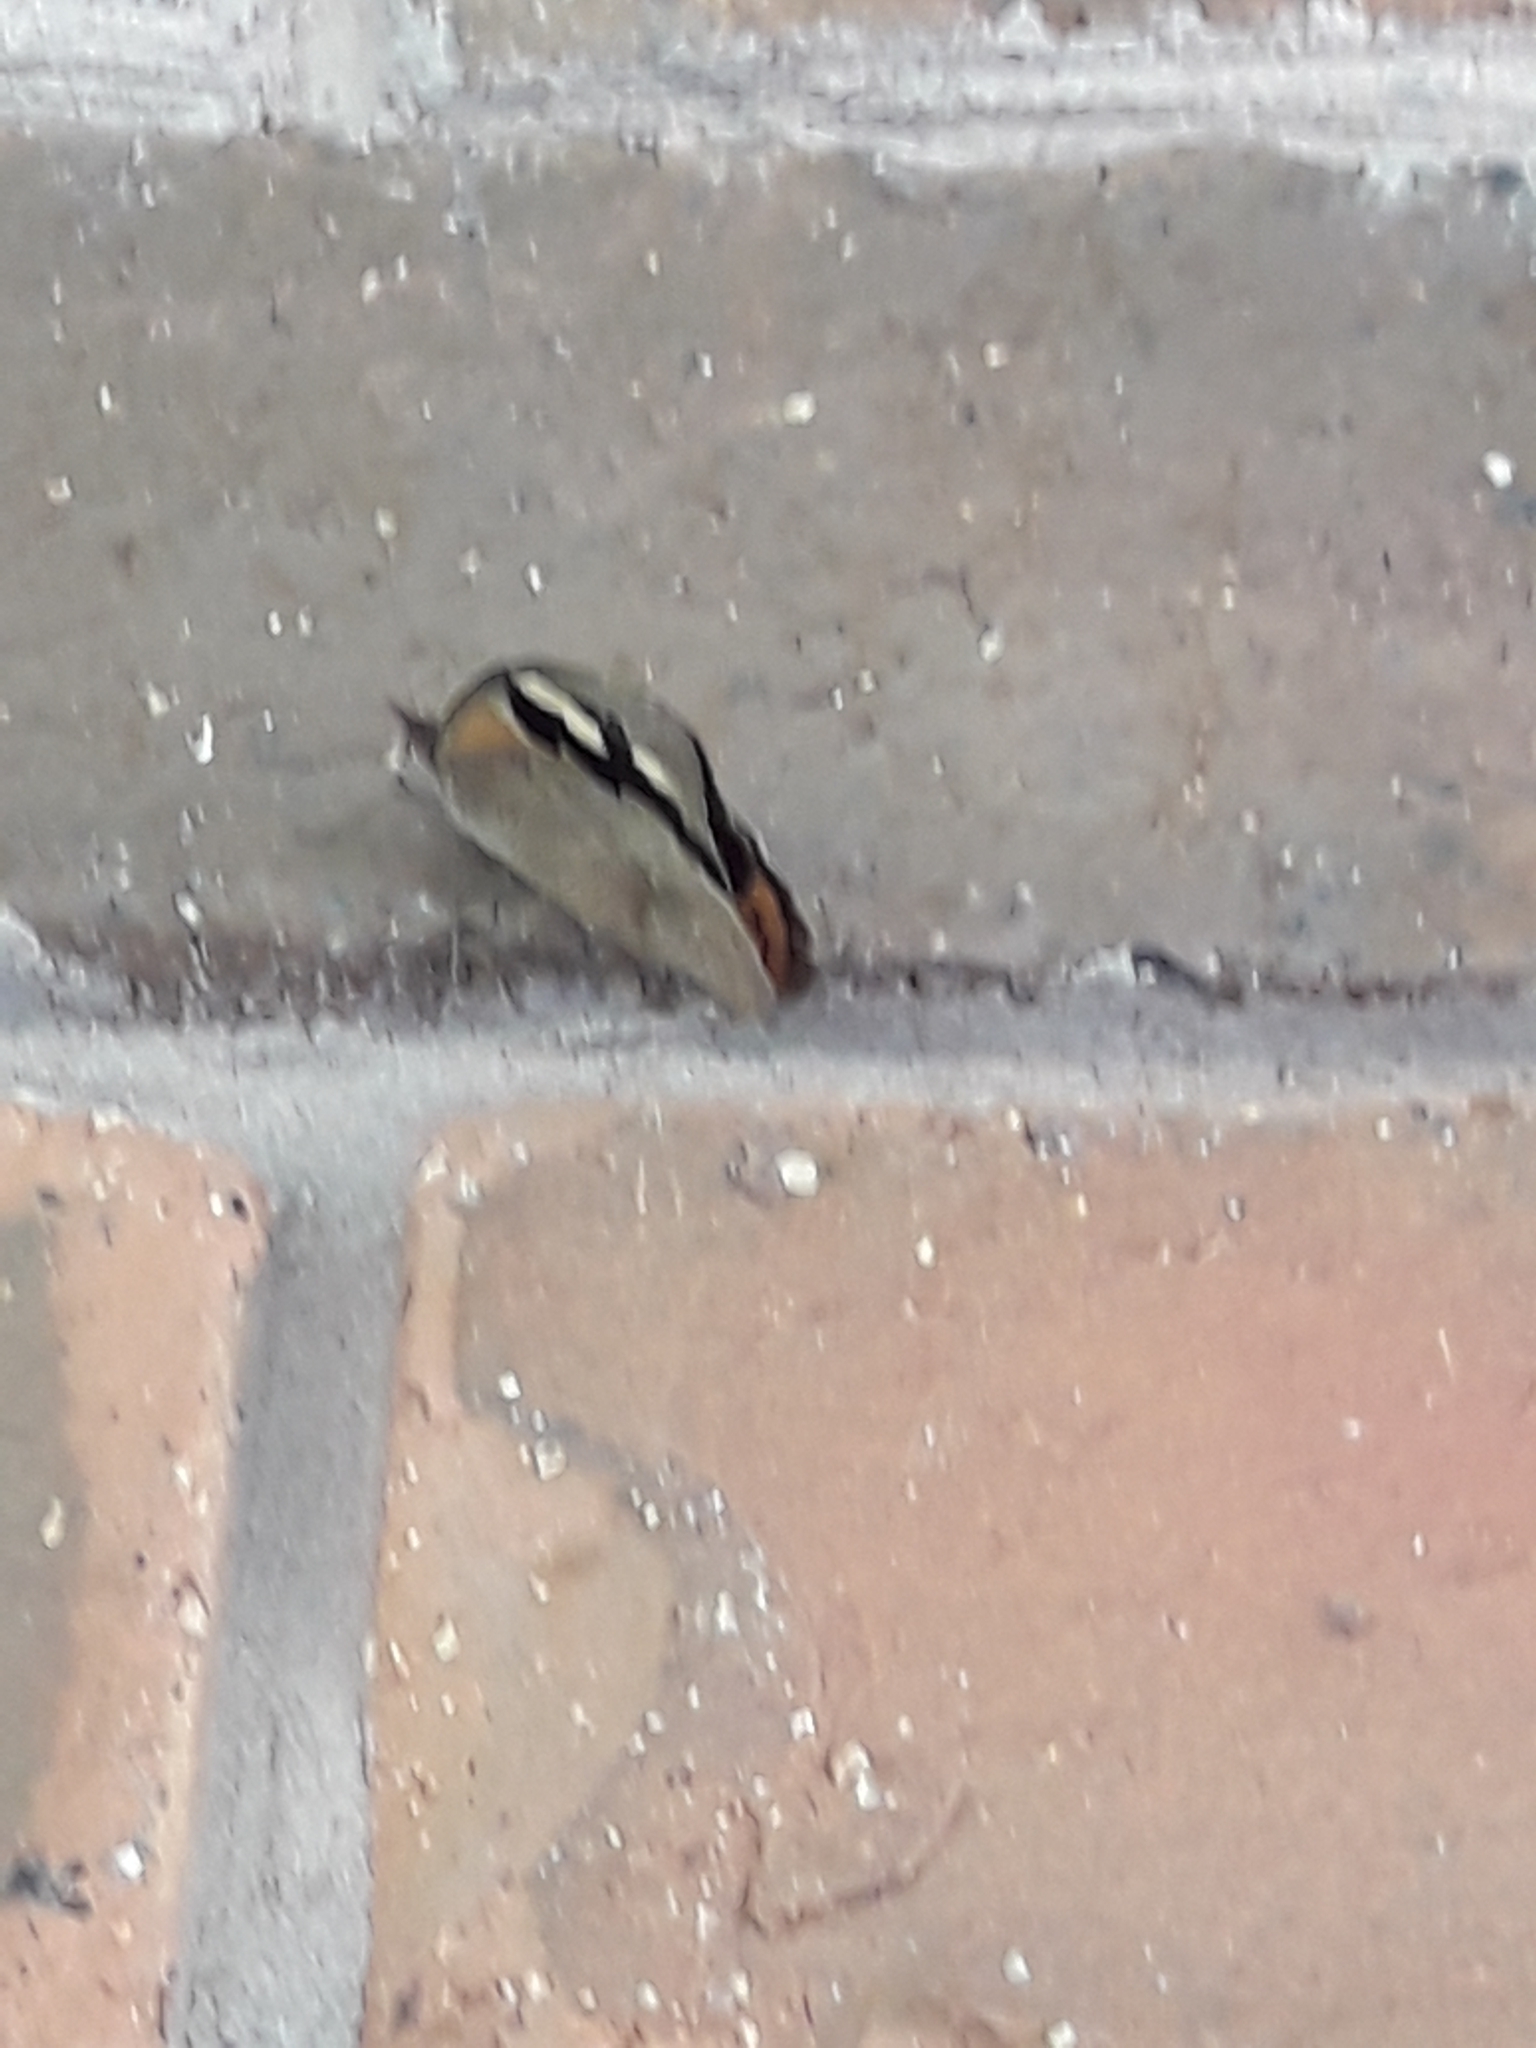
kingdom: Animalia
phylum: Arthropoda
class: Insecta
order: Lepidoptera
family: Nymphalidae
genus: Heteronympha
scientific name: Heteronympha merope
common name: Common brown
